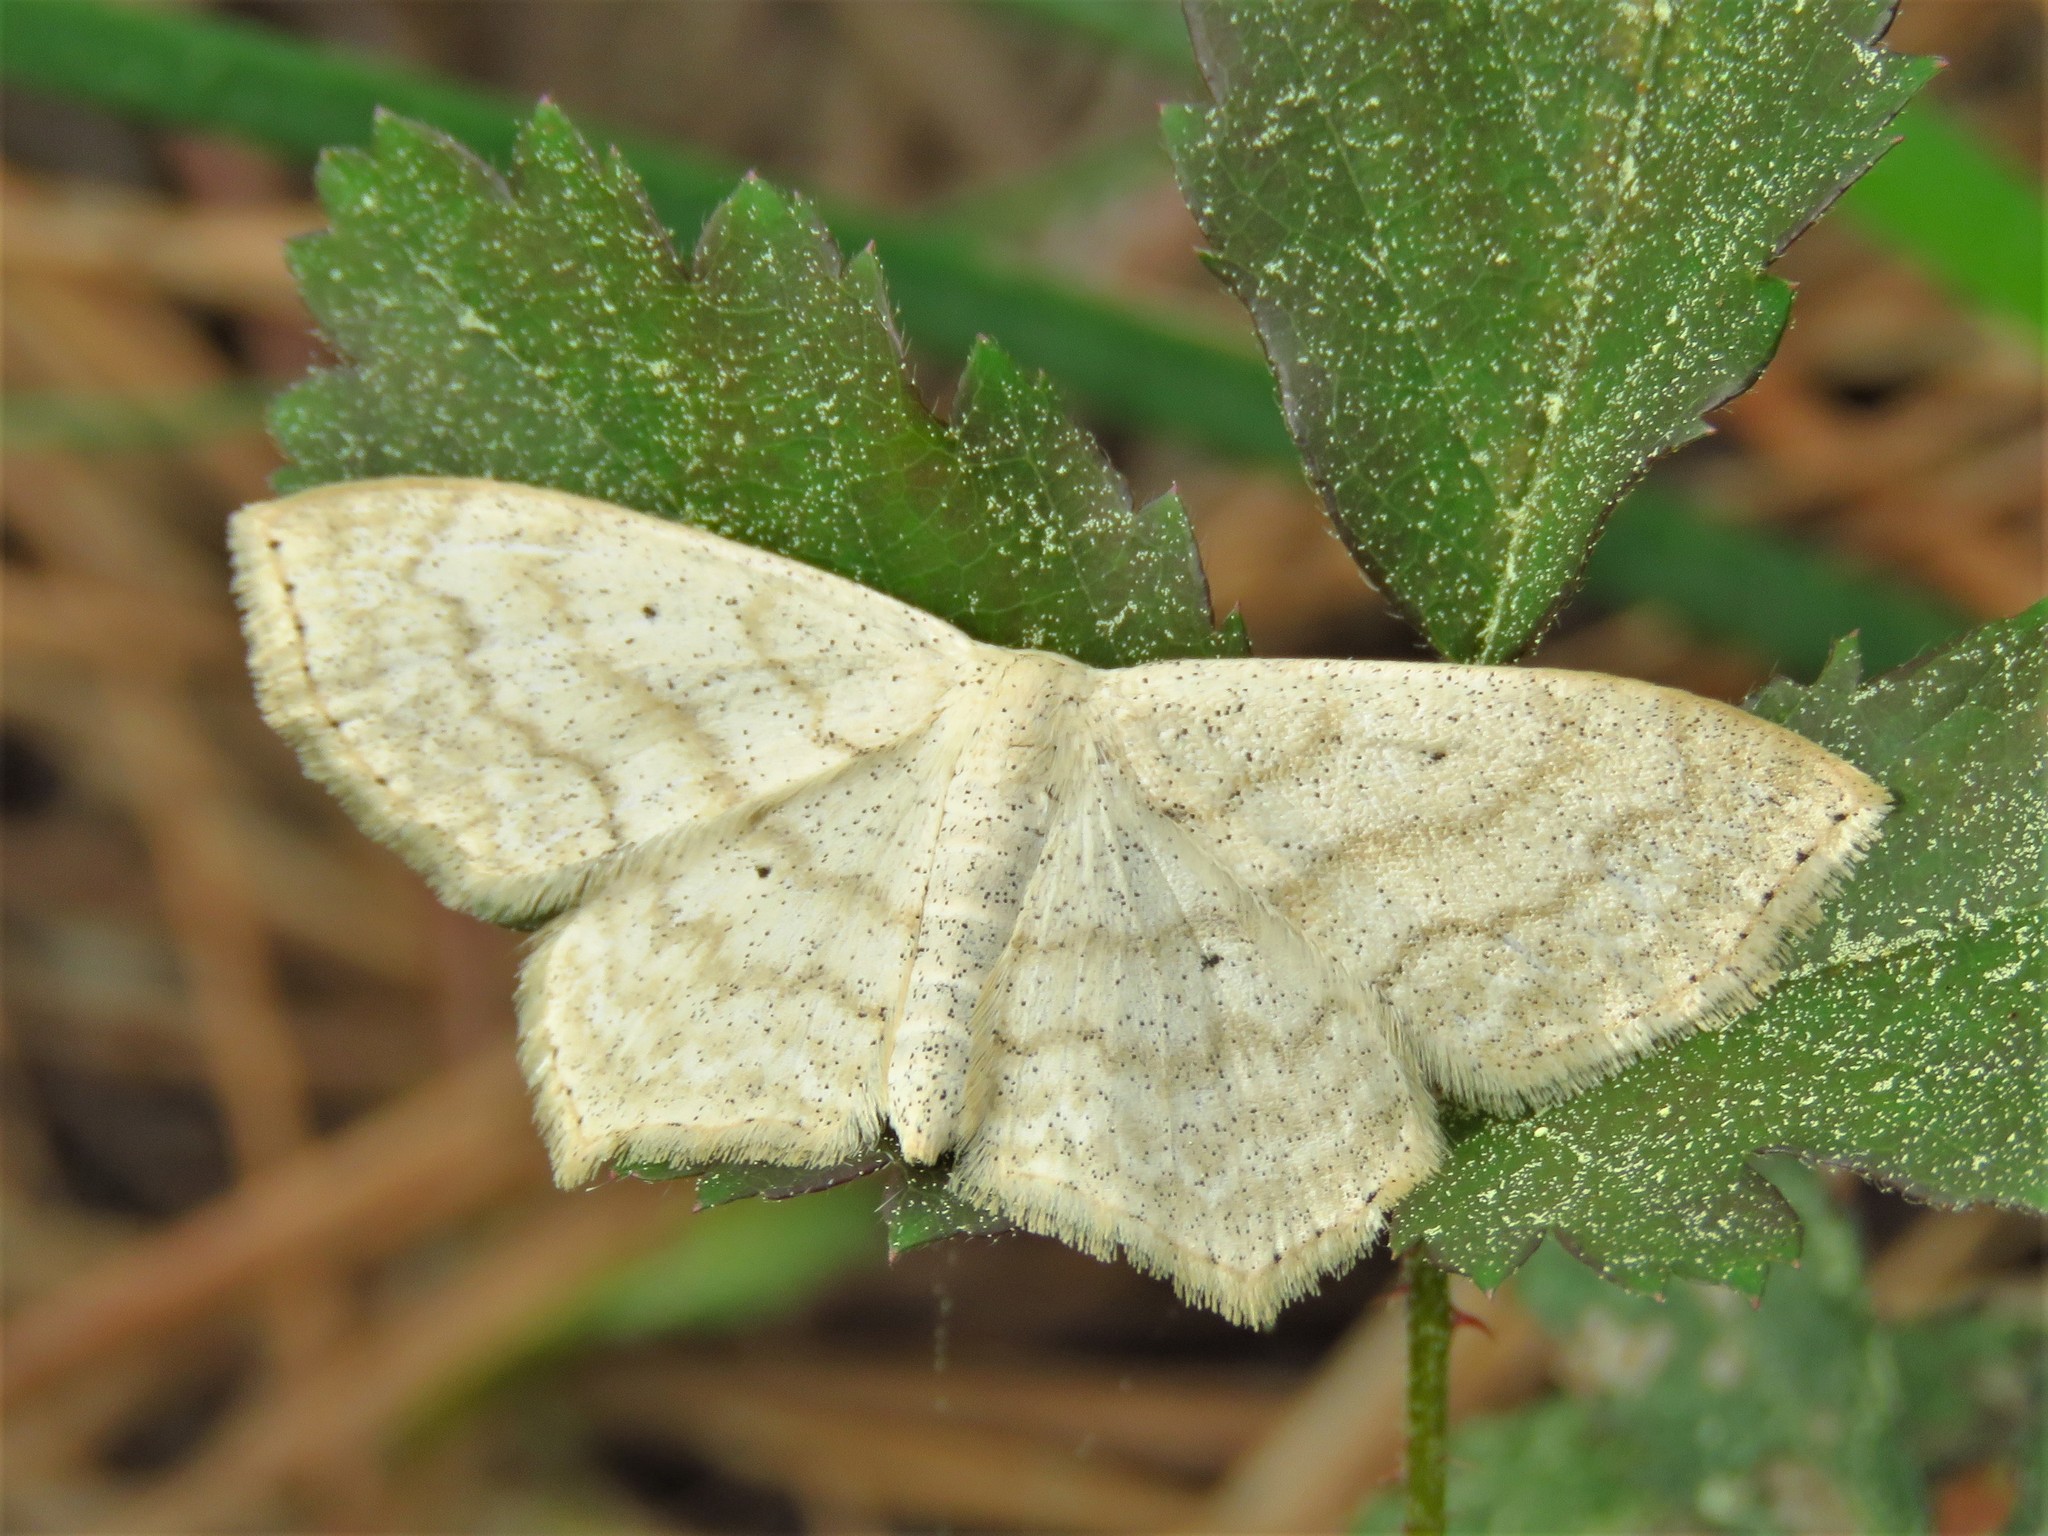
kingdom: Animalia
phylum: Arthropoda
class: Insecta
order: Lepidoptera
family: Geometridae
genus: Scopula
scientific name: Scopula limboundata
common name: Large lace border
